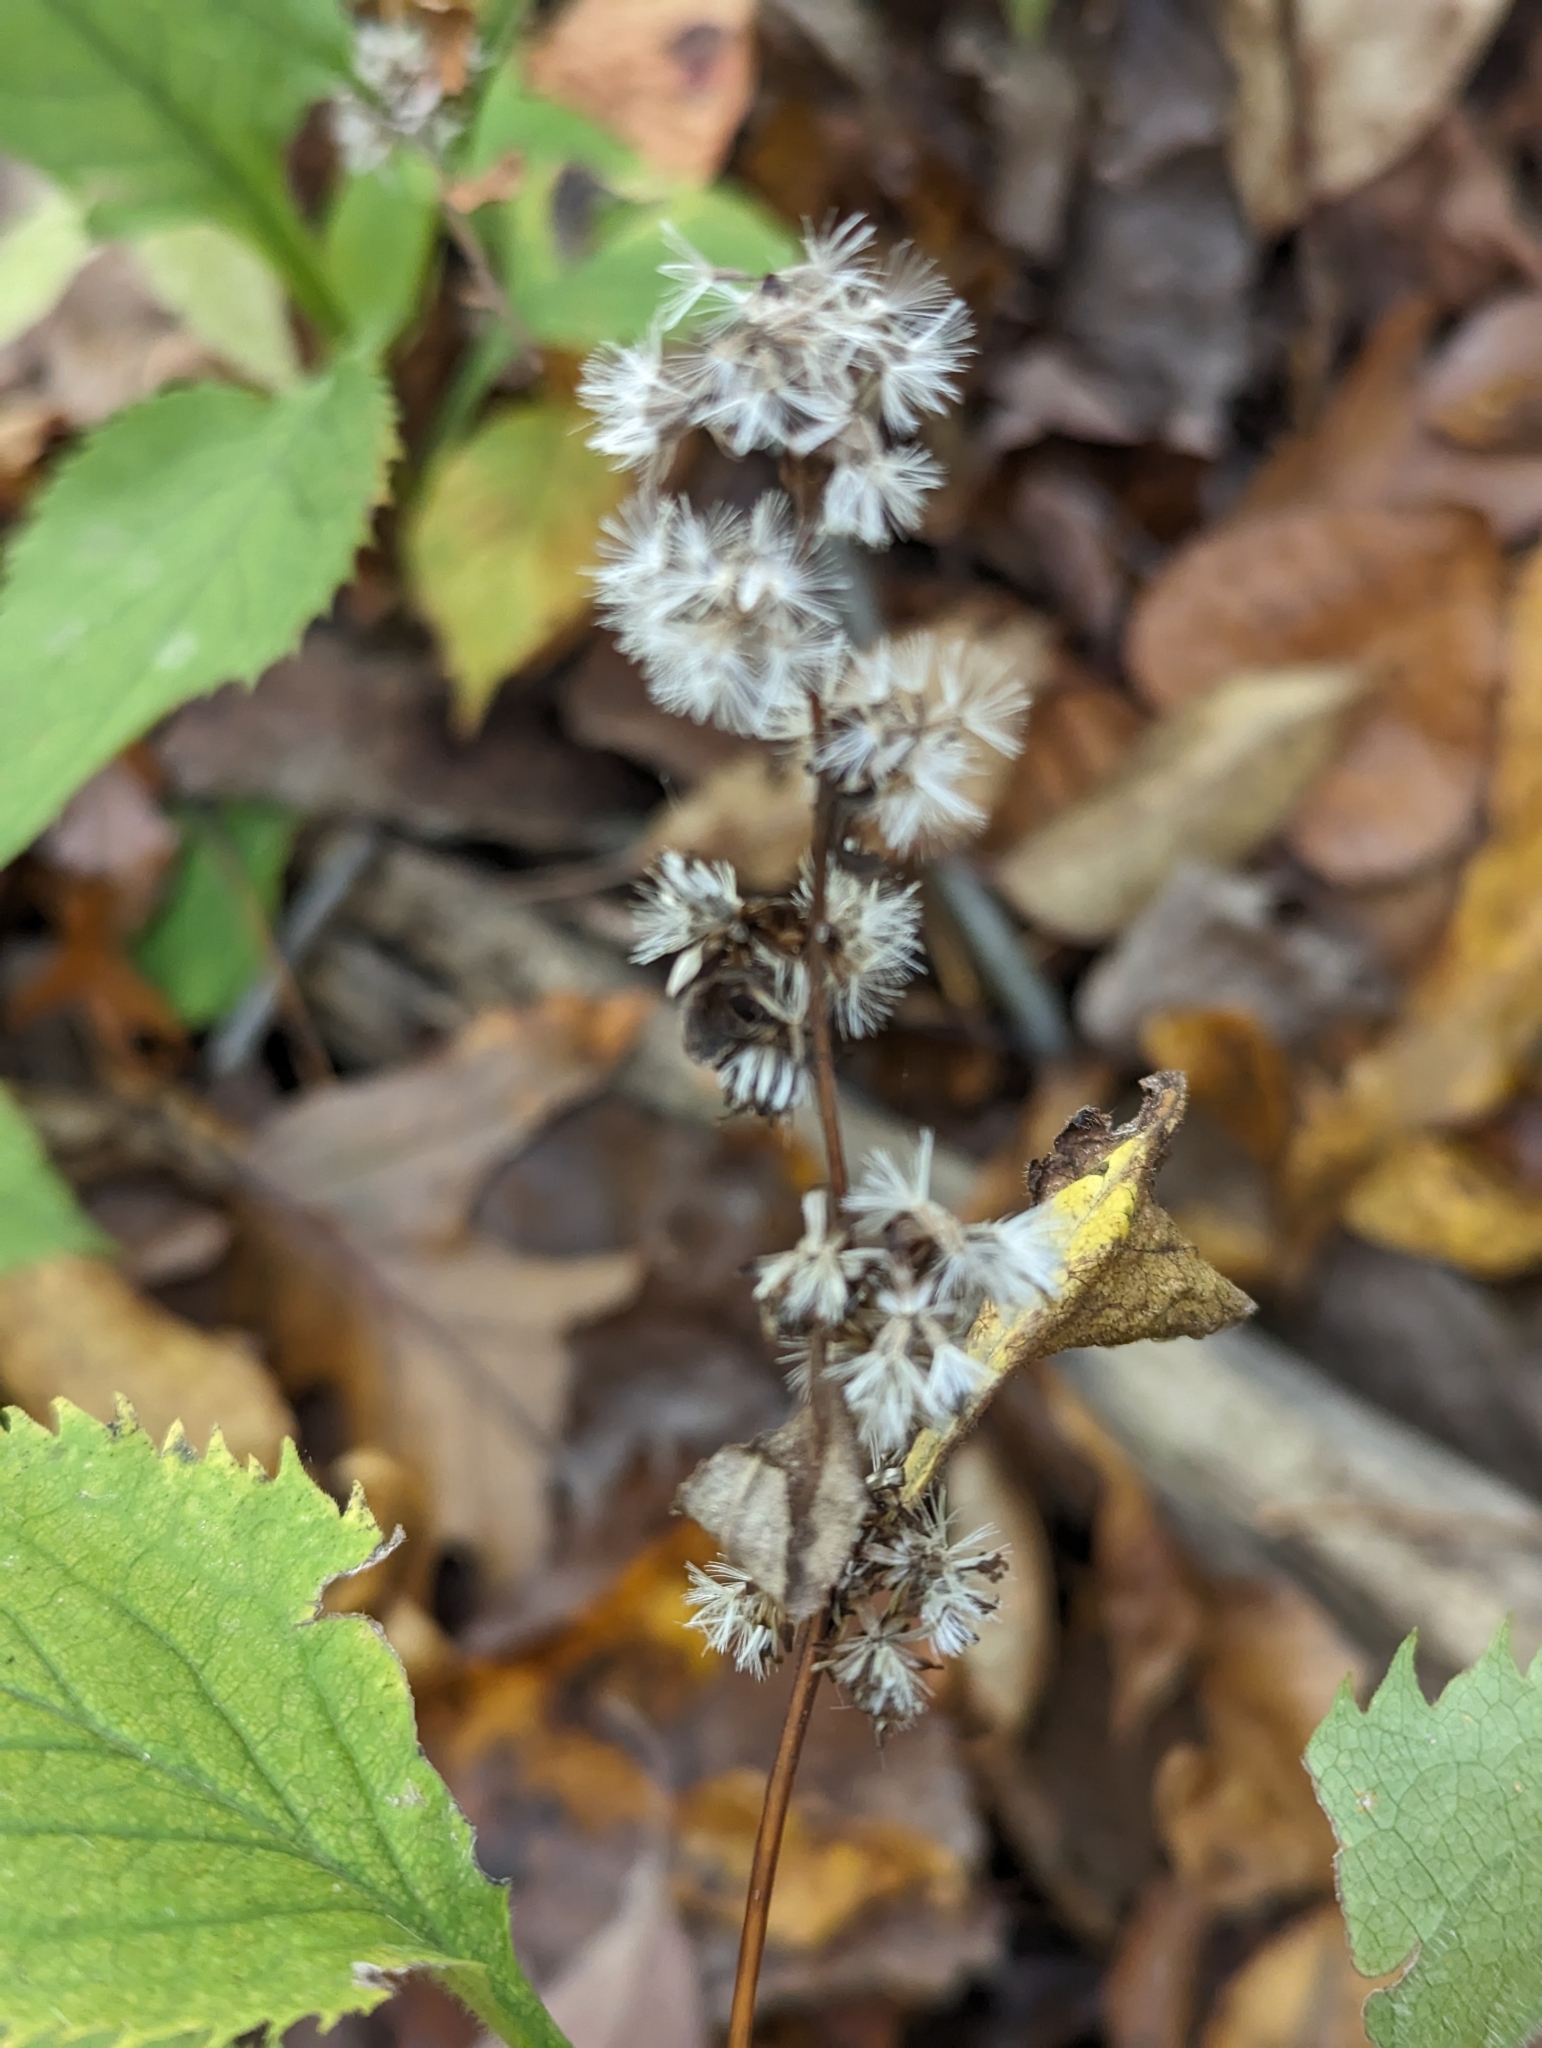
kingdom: Plantae
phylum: Tracheophyta
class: Magnoliopsida
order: Asterales
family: Asteraceae
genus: Solidago
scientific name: Solidago flexicaulis
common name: Zig-zag goldenrod
